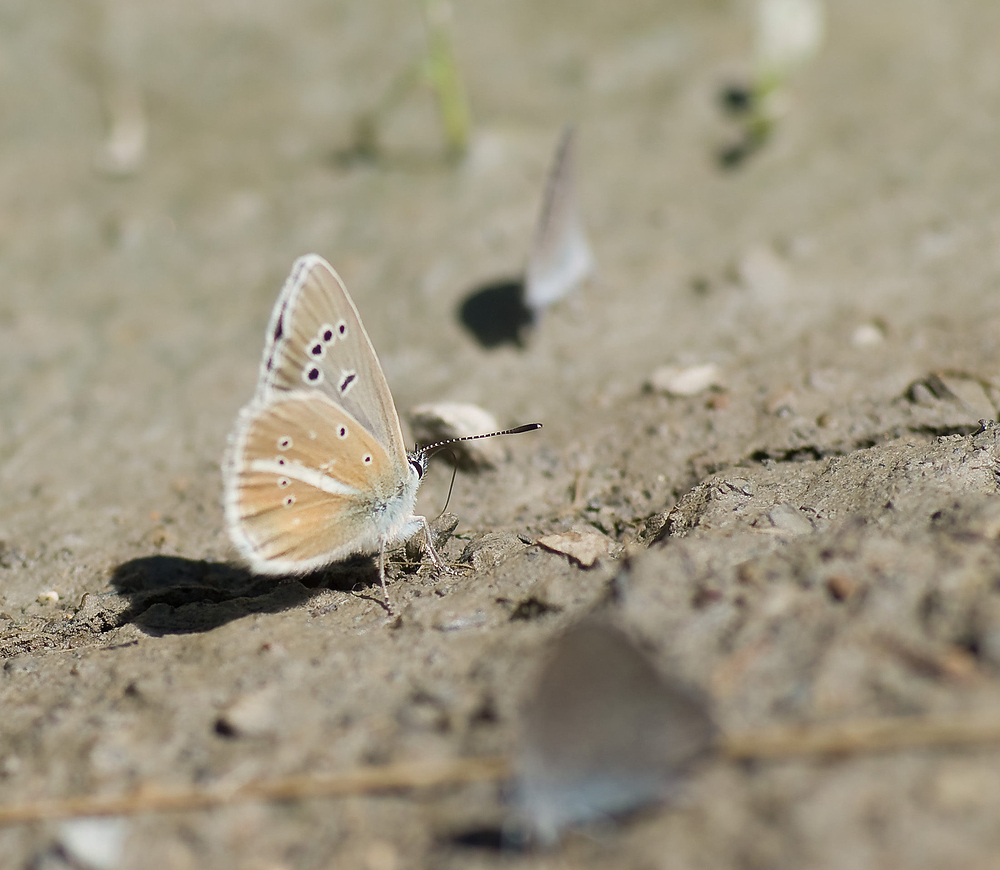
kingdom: Animalia
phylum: Arthropoda
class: Insecta
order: Lepidoptera
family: Lycaenidae
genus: Agrodiaetus
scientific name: Agrodiaetus damon
